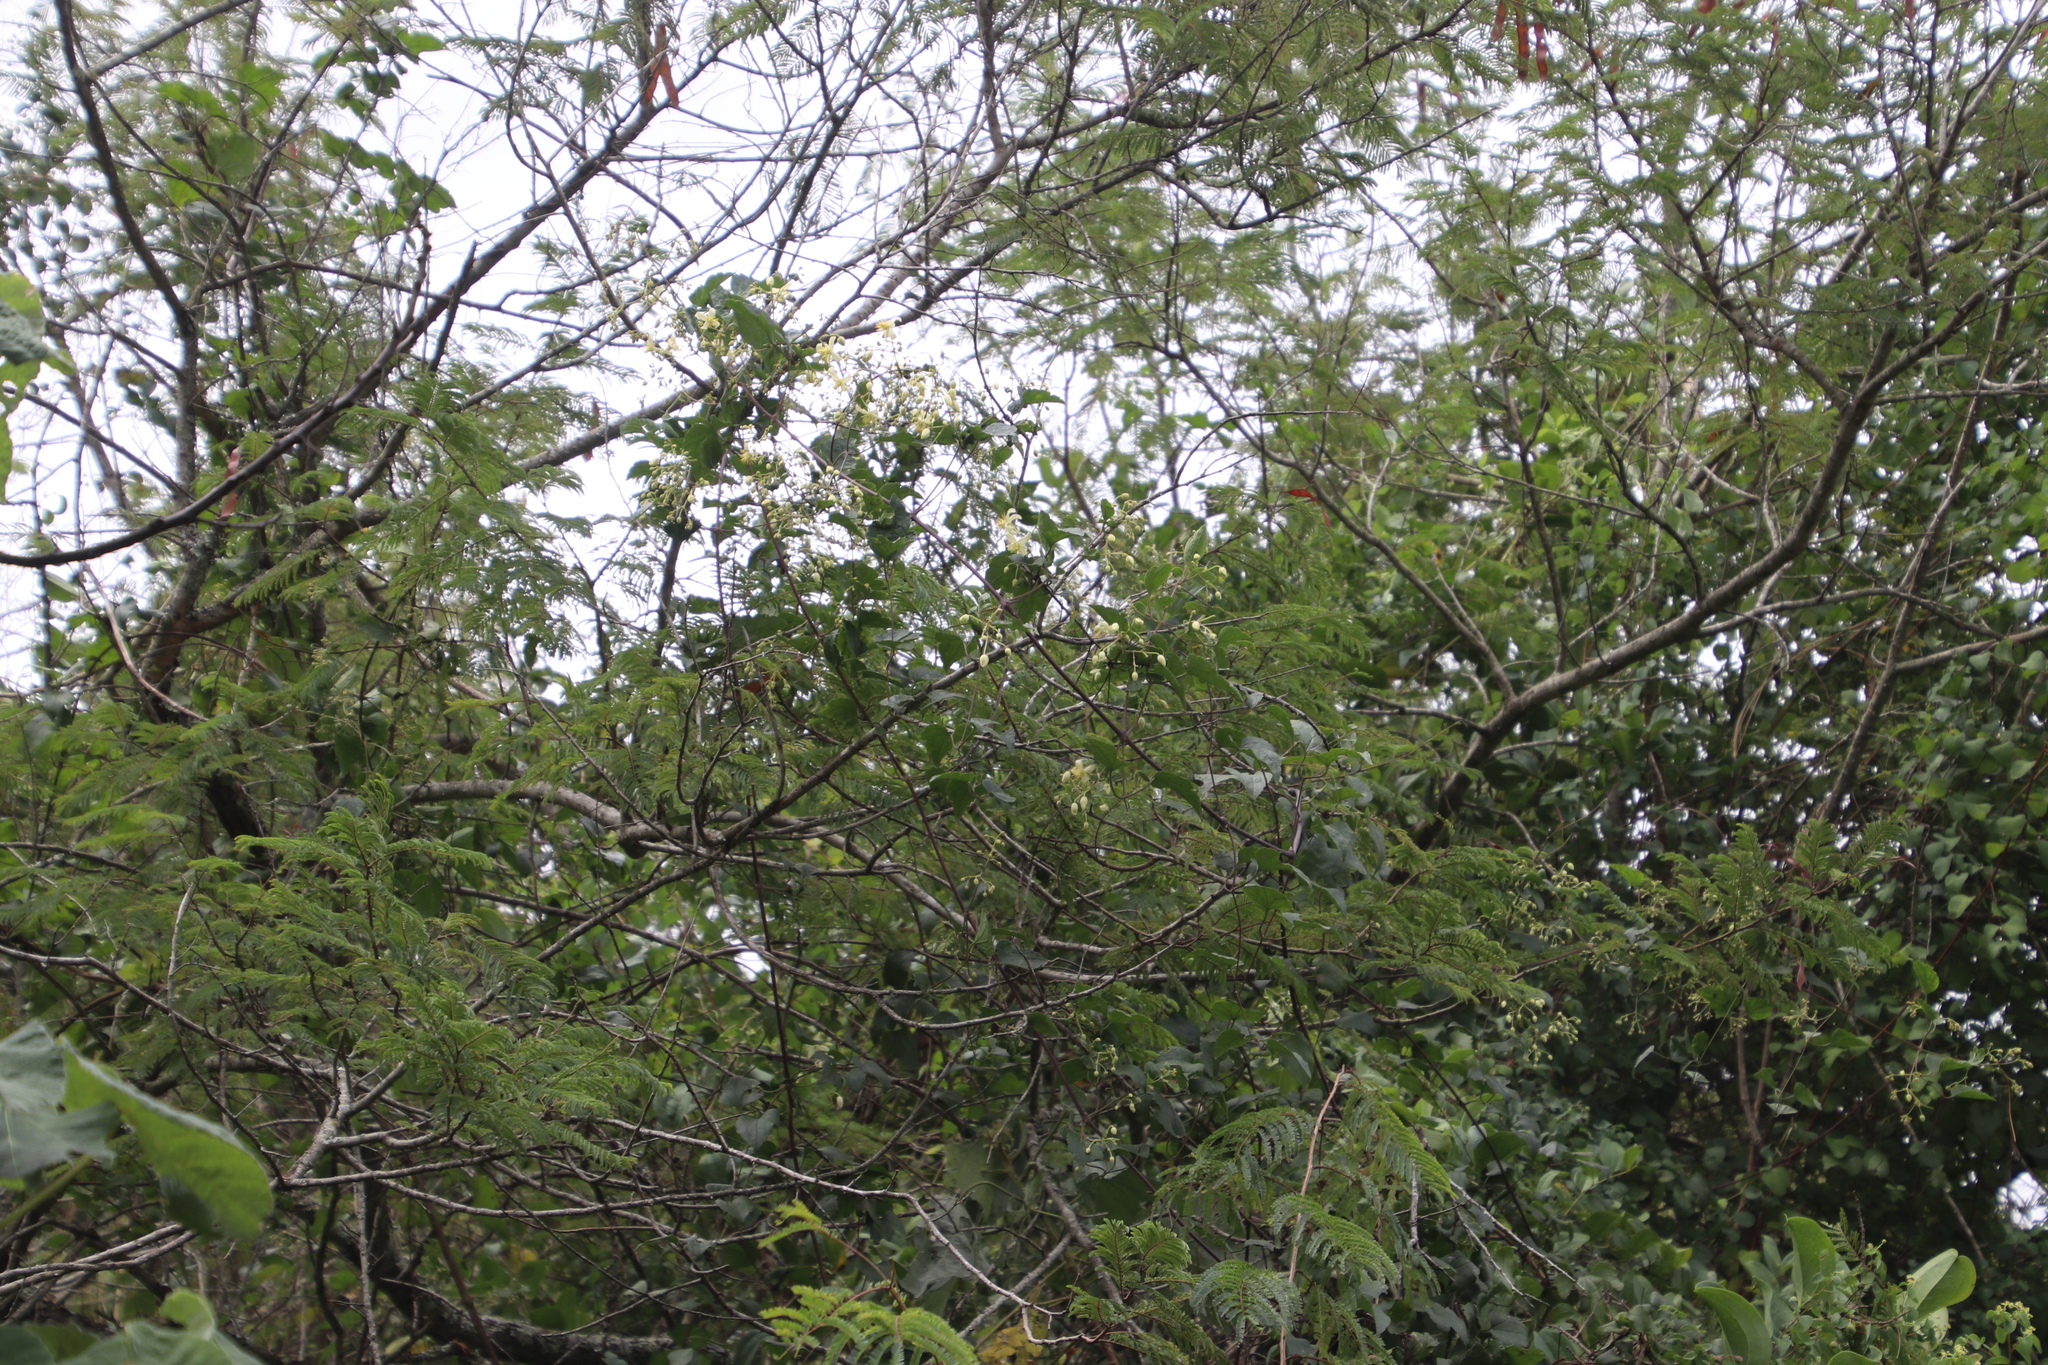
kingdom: Plantae
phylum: Tracheophyta
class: Magnoliopsida
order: Ranunculales
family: Ranunculaceae
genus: Clematis
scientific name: Clematis brachiata
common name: Traveler's-joy
